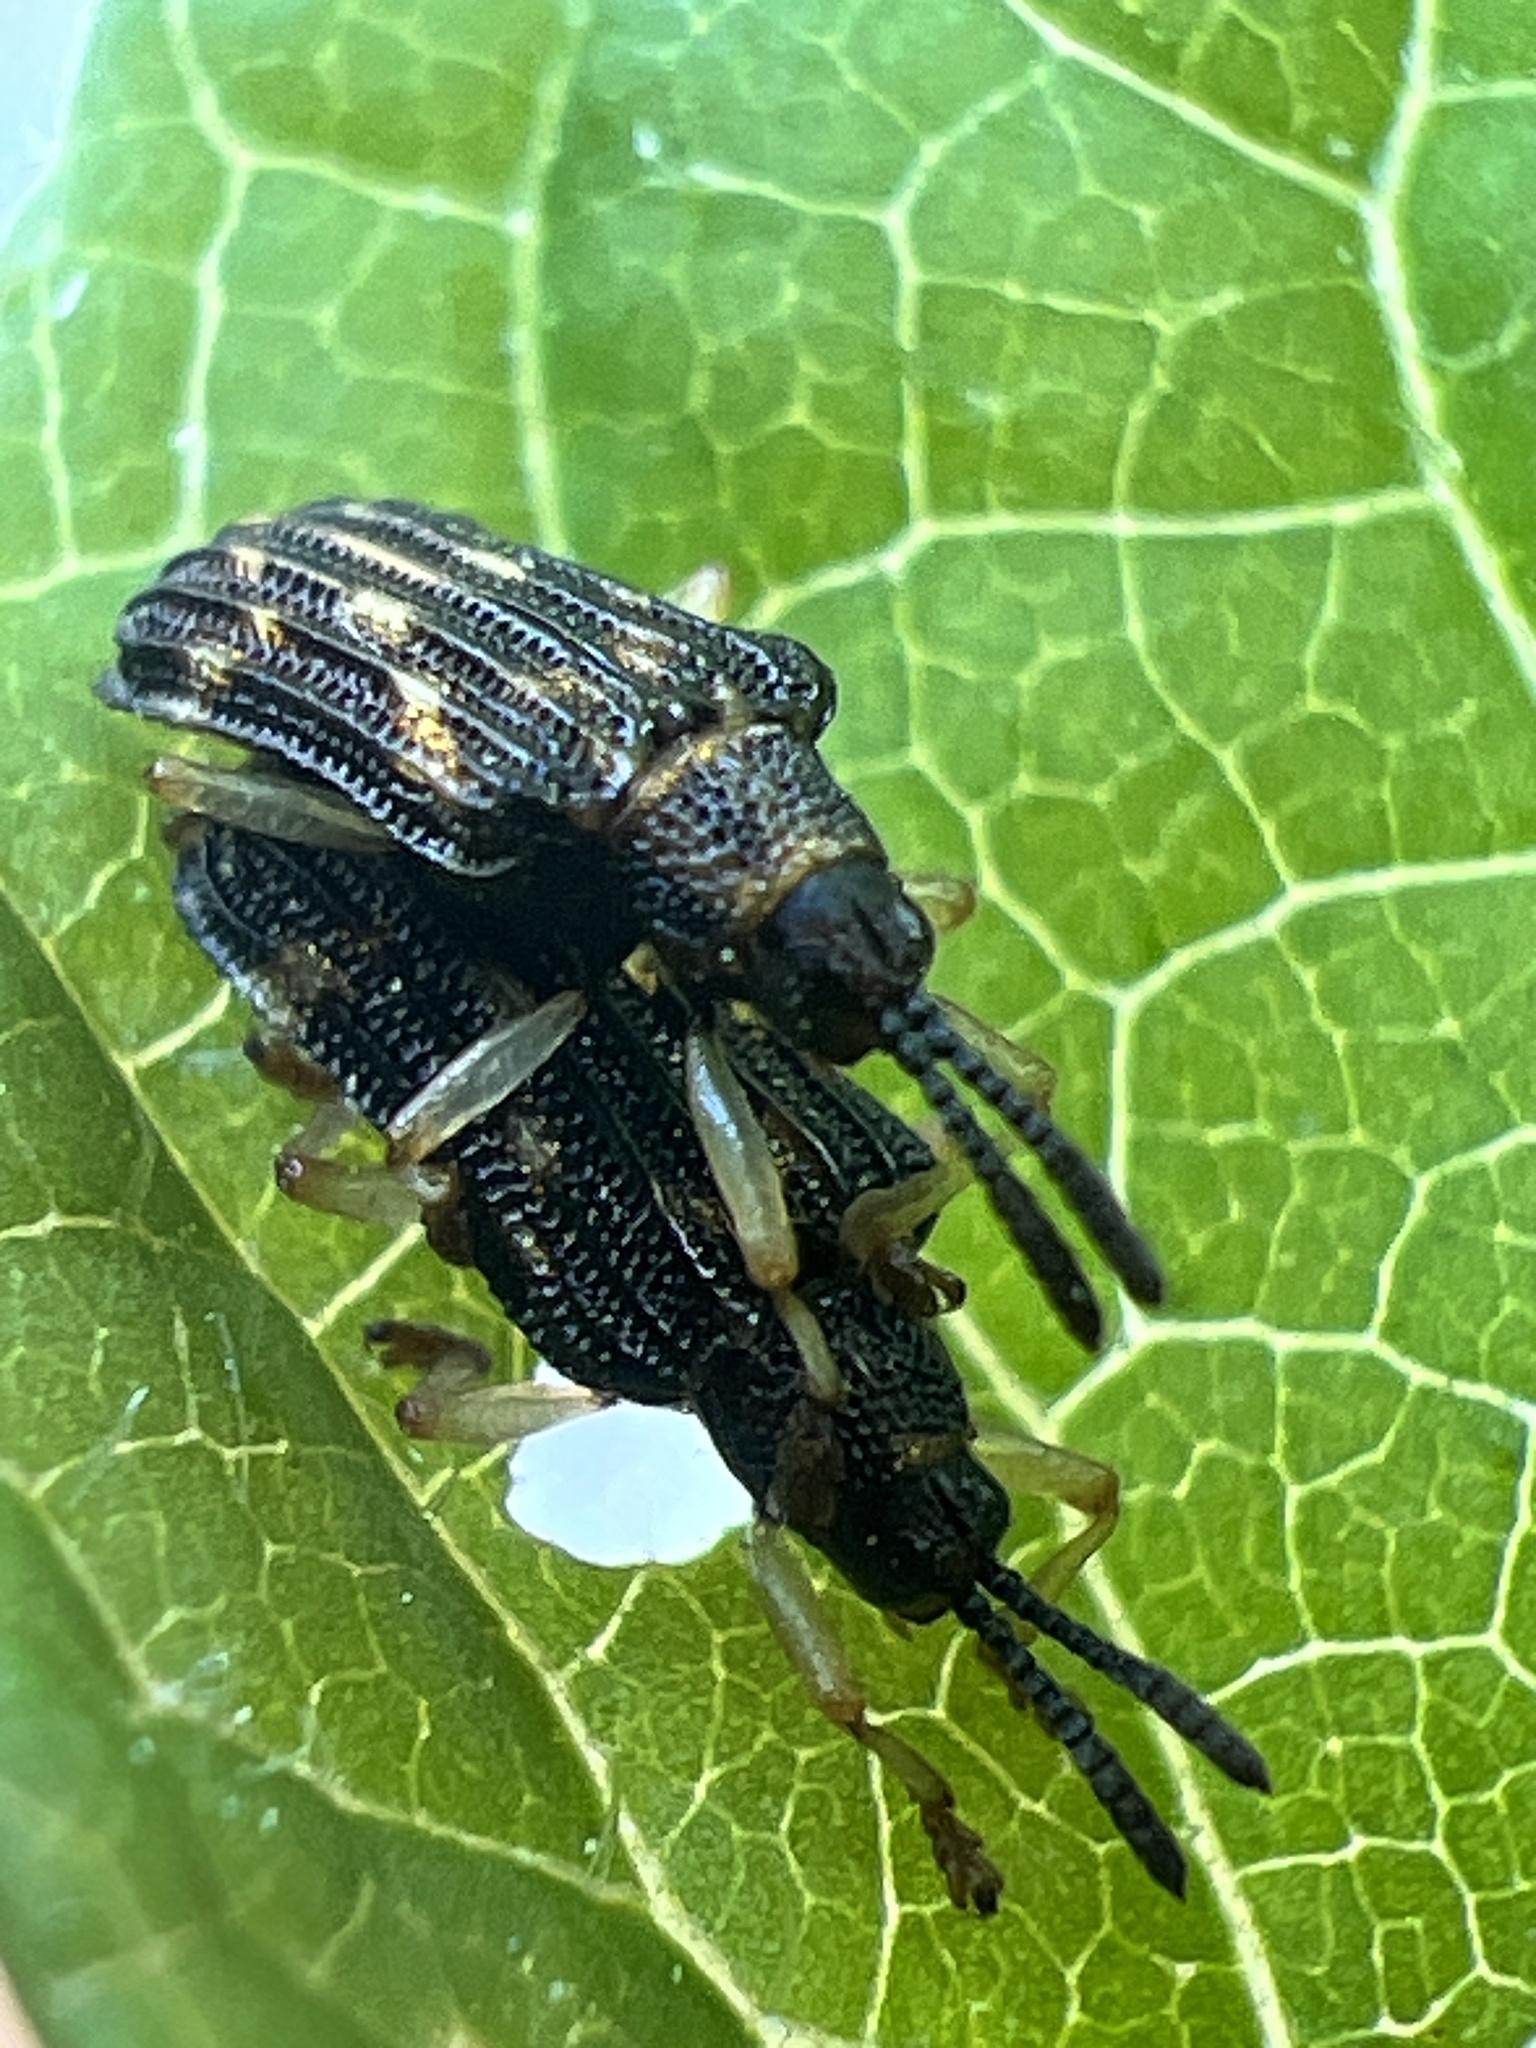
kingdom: Animalia
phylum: Arthropoda
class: Insecta
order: Coleoptera
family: Chrysomelidae
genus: Sumitrosis
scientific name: Sumitrosis inaequalis
